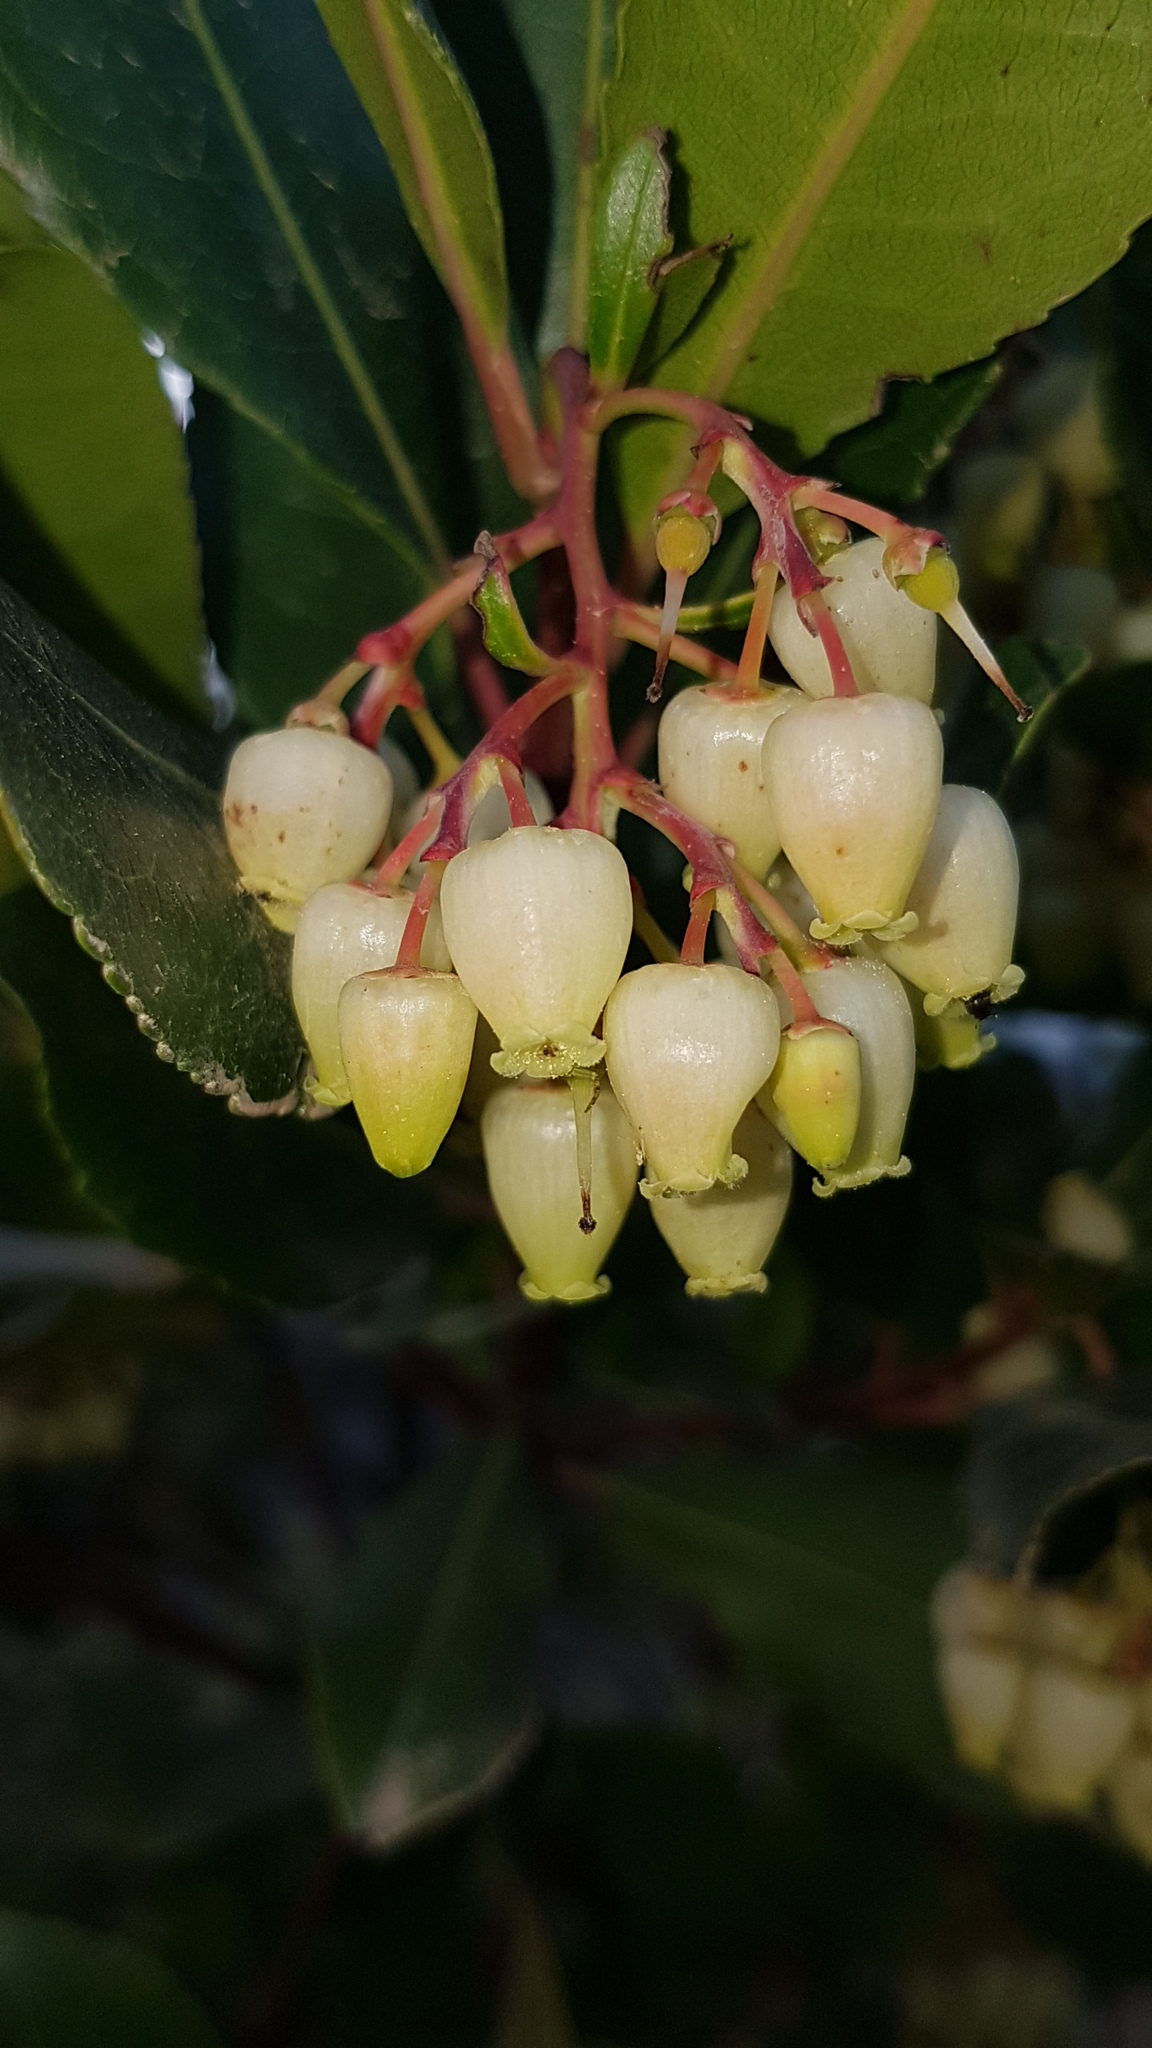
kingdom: Plantae
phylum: Tracheophyta
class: Magnoliopsida
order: Ericales
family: Ericaceae
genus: Arbutus
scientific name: Arbutus unedo
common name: Strawberry-tree
